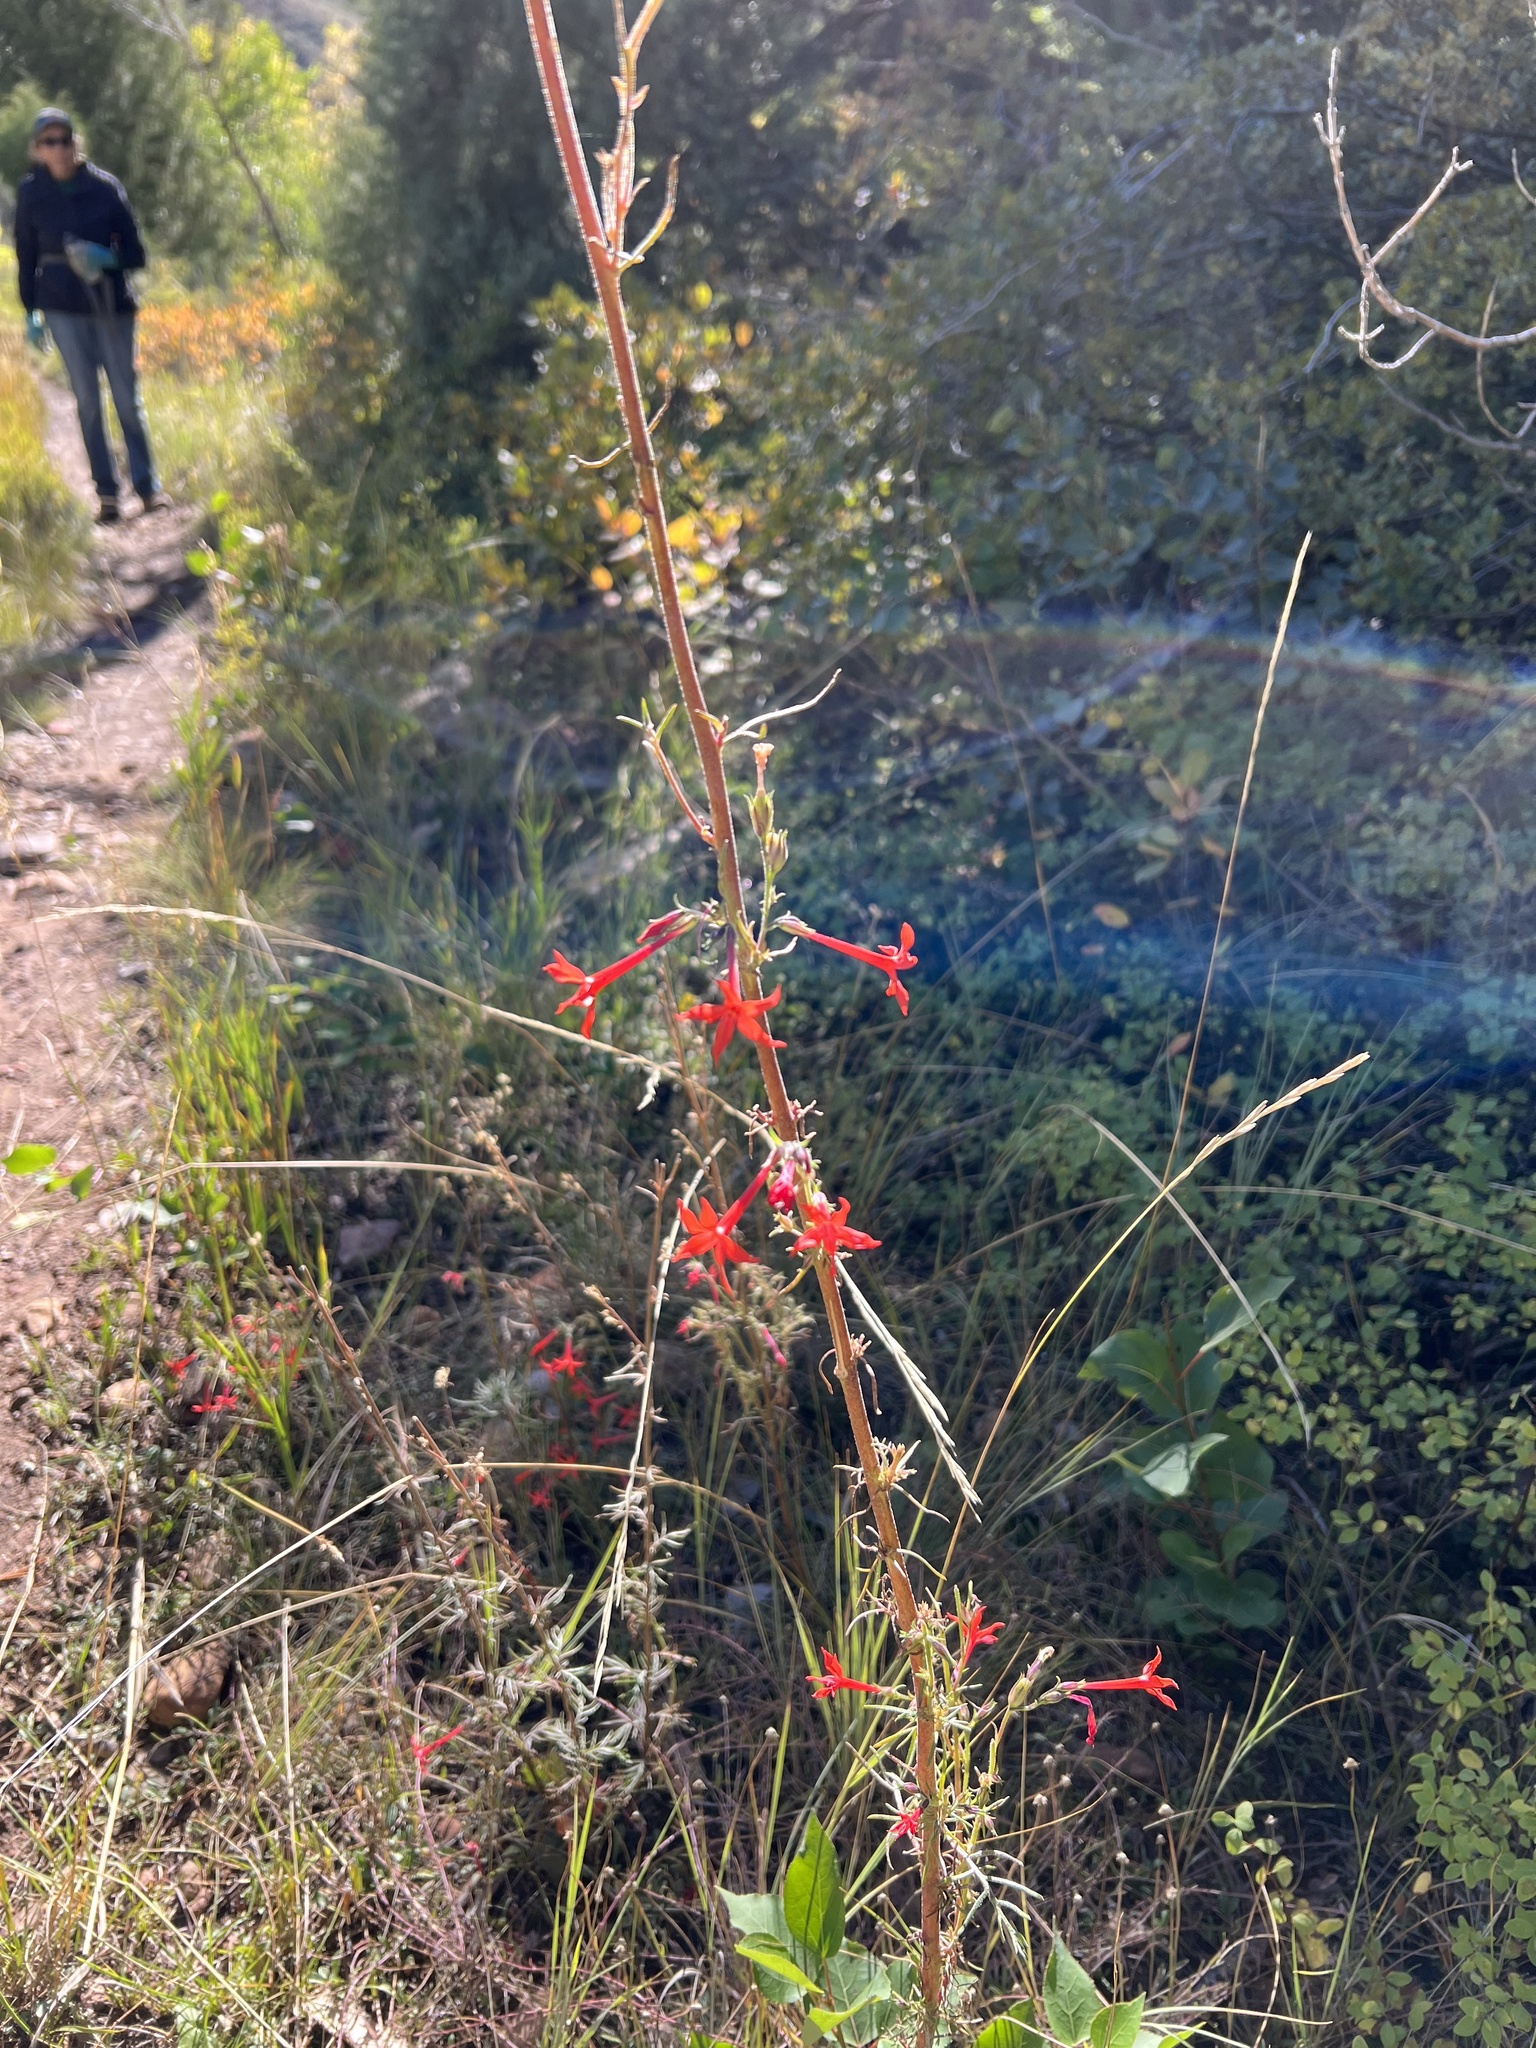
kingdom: Plantae
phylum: Tracheophyta
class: Magnoliopsida
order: Ericales
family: Polemoniaceae
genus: Ipomopsis
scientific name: Ipomopsis aggregata
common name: Scarlet gilia
